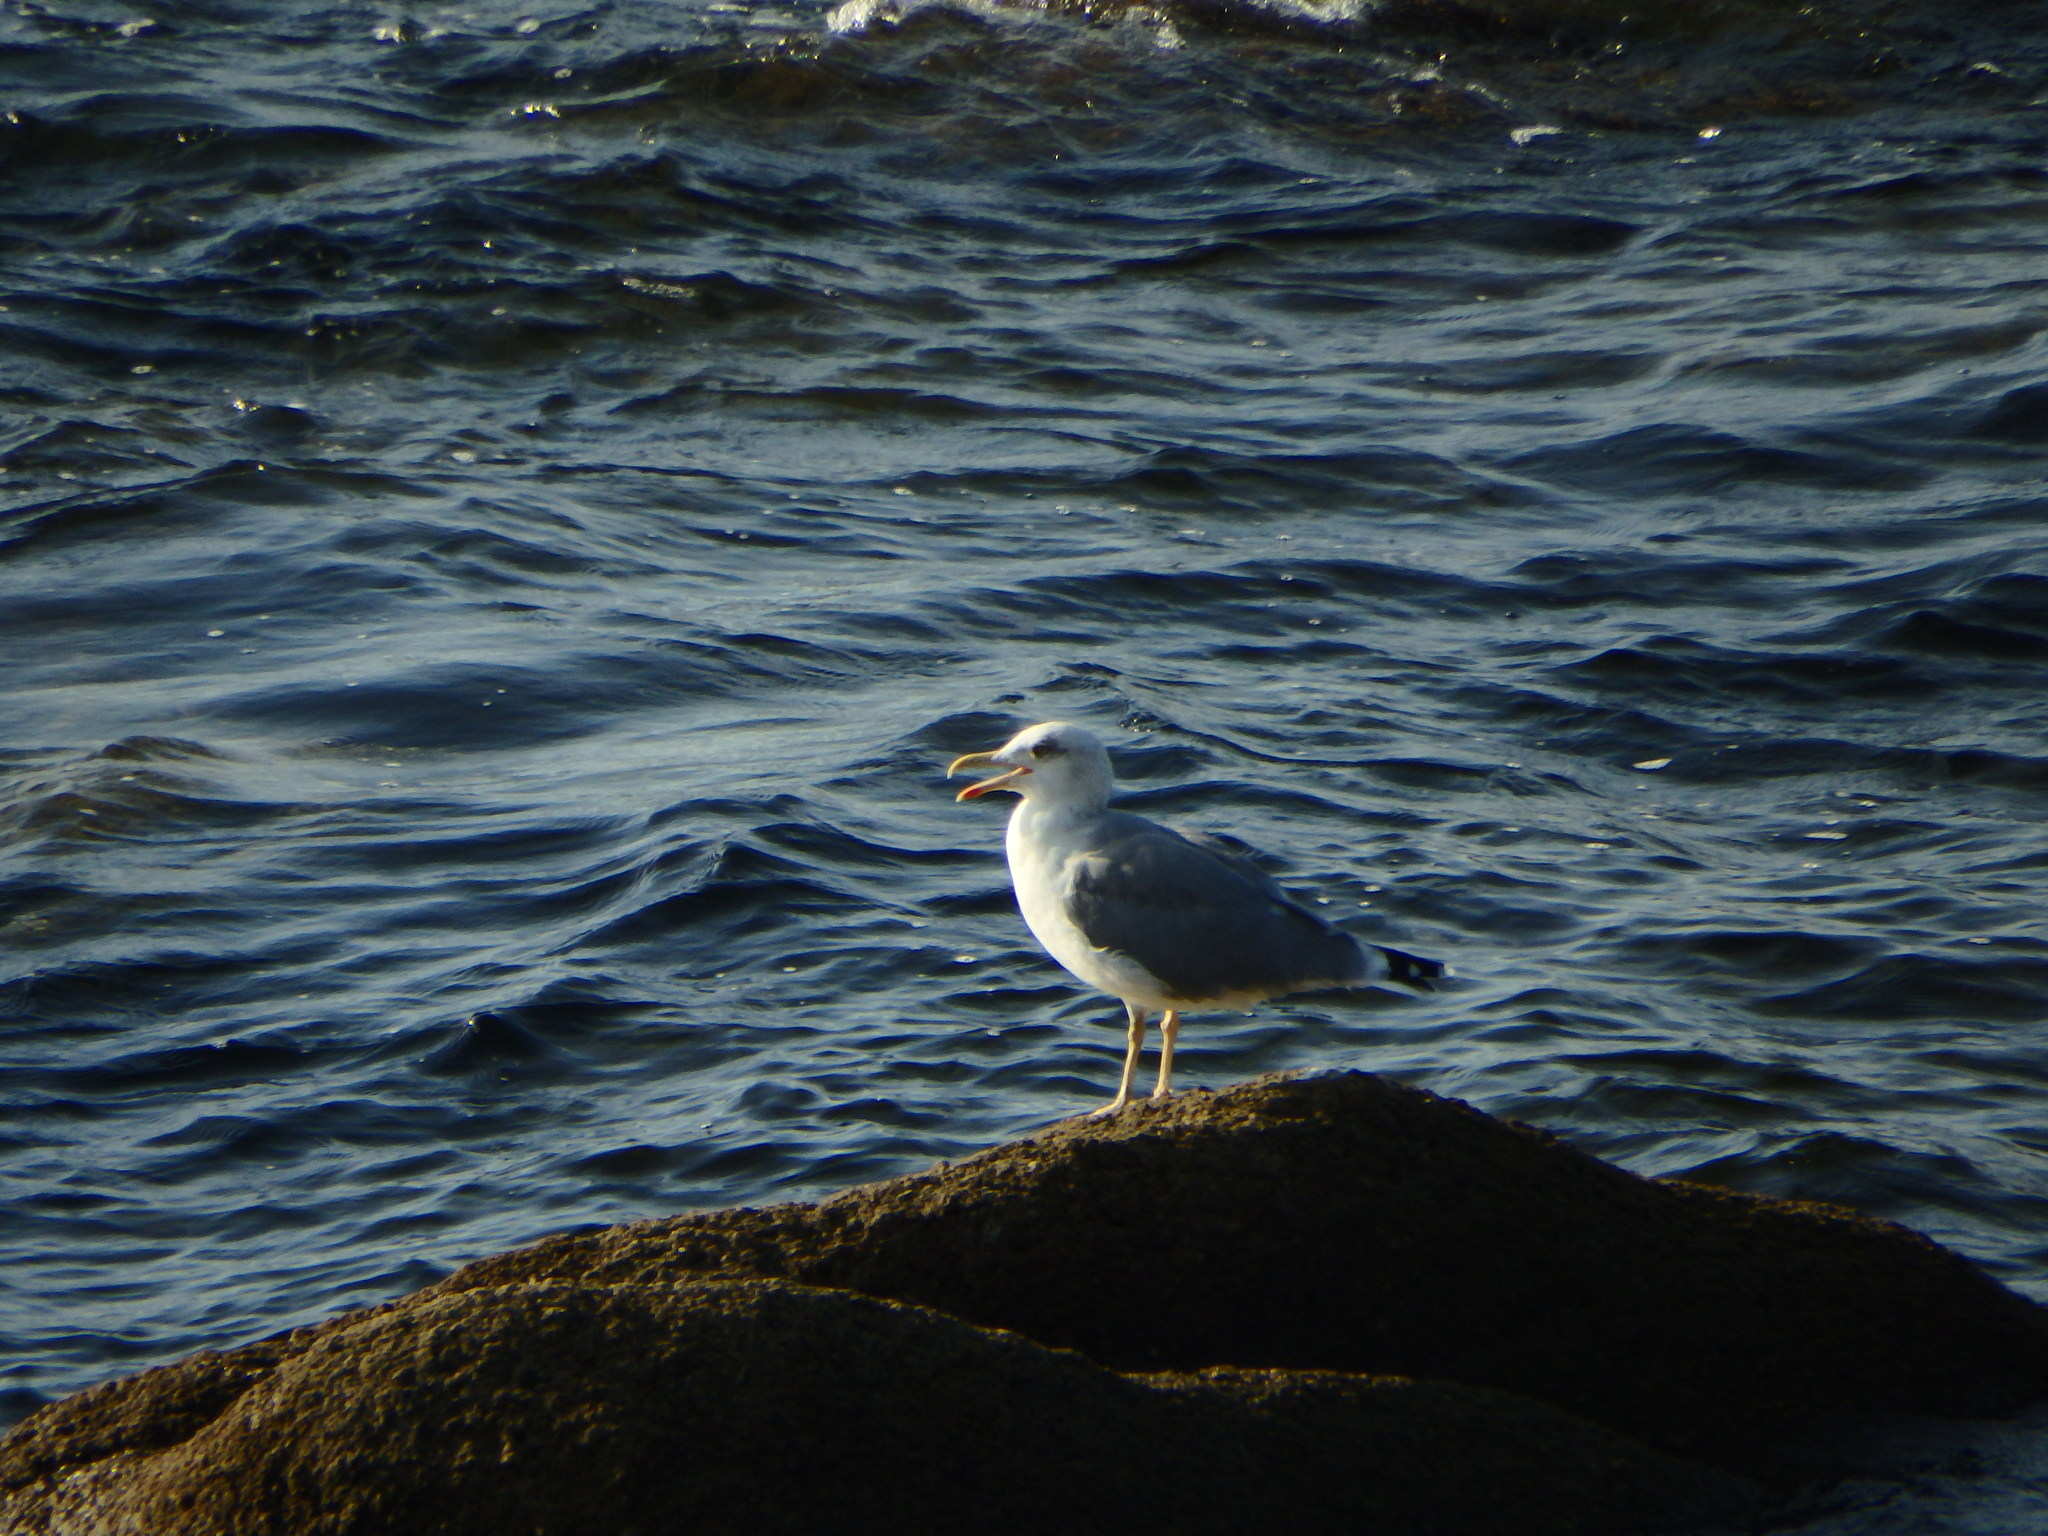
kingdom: Animalia
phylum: Chordata
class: Aves
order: Charadriiformes
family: Laridae
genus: Larus
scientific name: Larus michahellis
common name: Yellow-legged gull
